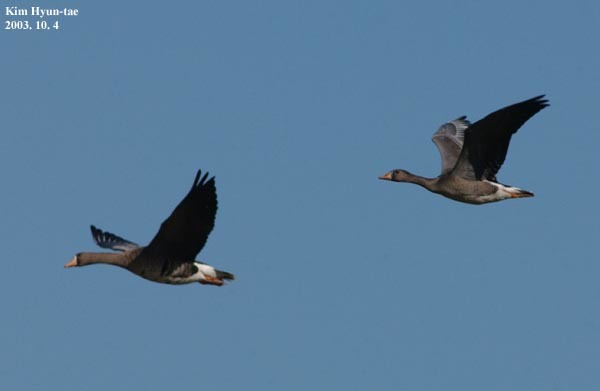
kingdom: Animalia
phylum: Chordata
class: Aves
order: Anseriformes
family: Anatidae
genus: Anser
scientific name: Anser albifrons
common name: Greater white-fronted goose
